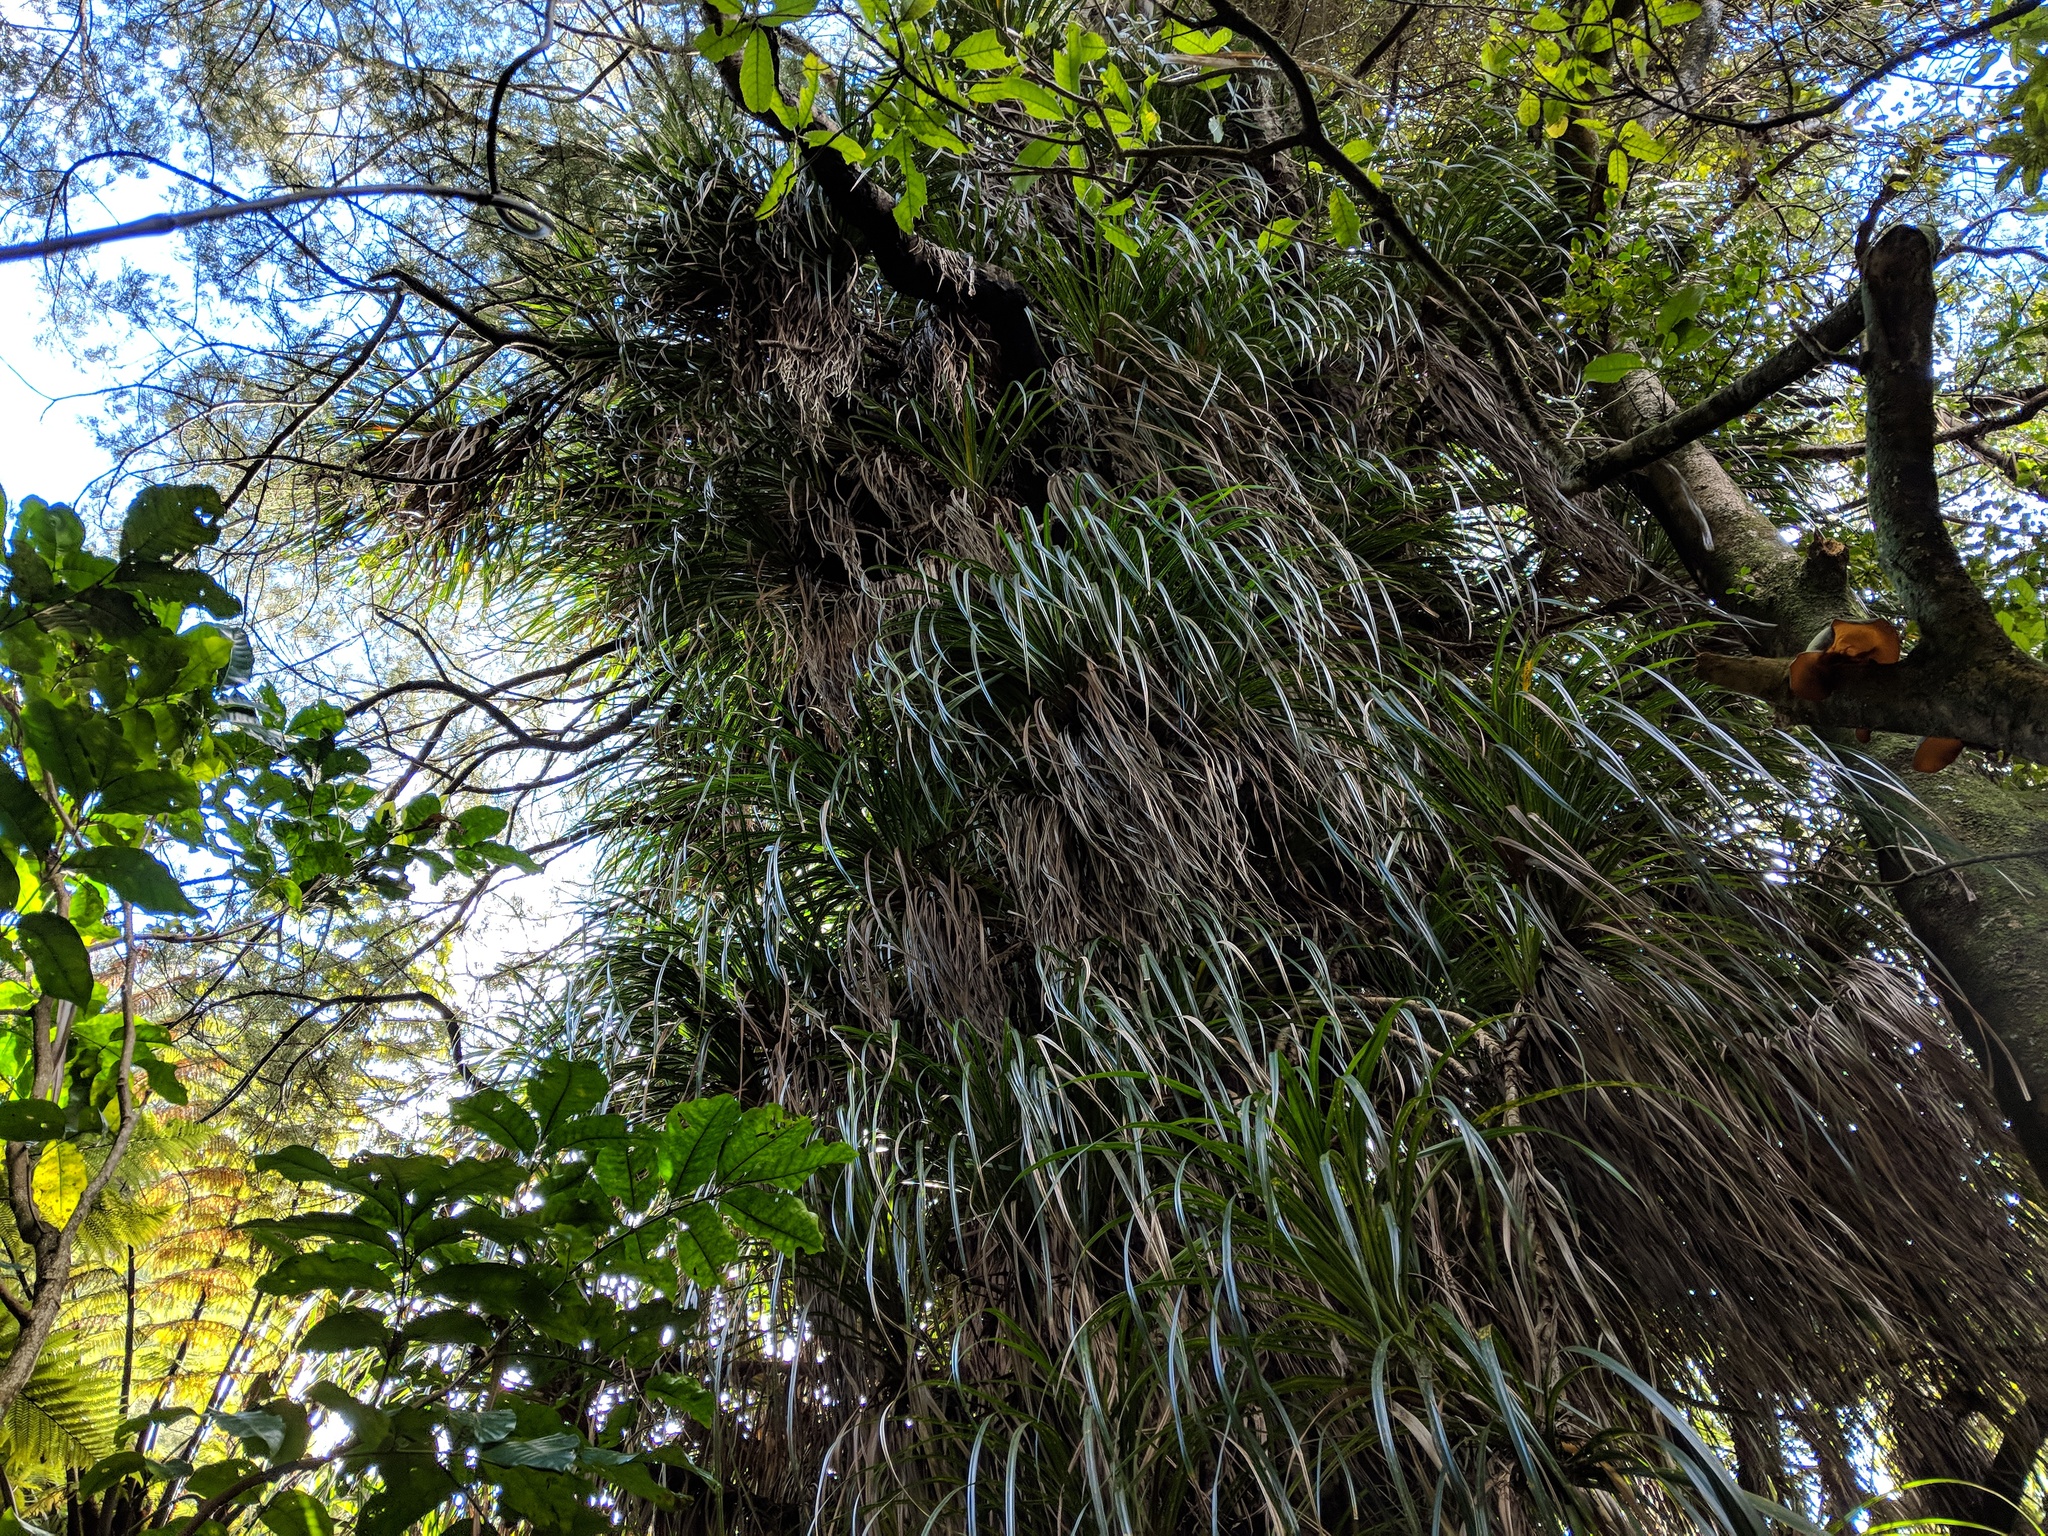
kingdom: Plantae
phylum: Tracheophyta
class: Liliopsida
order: Pandanales
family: Pandanaceae
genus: Freycinetia
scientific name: Freycinetia banksii
